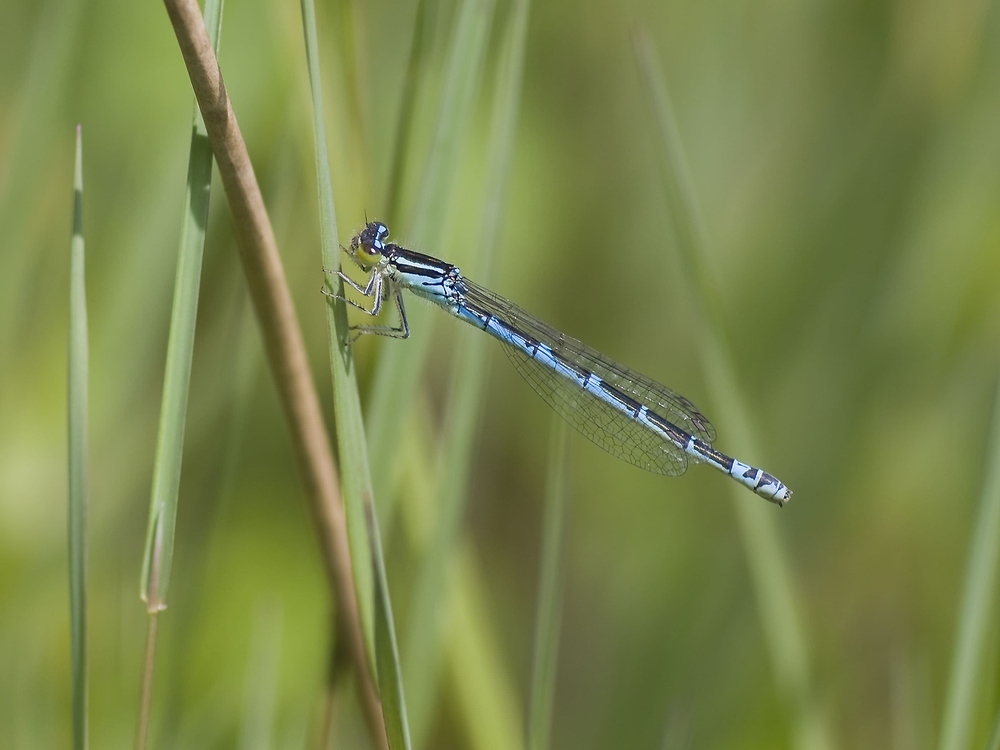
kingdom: Animalia
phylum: Arthropoda
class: Insecta
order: Odonata
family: Coenagrionidae
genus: Coenagrion
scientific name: Coenagrion scitulum
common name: Dainty bluet
